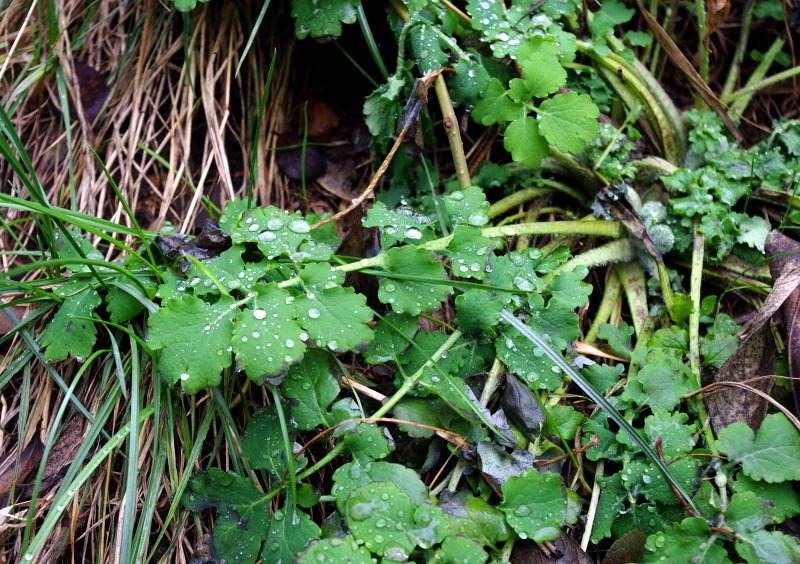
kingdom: Plantae
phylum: Tracheophyta
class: Magnoliopsida
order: Ranunculales
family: Papaveraceae
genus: Chelidonium
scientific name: Chelidonium majus
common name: Greater celandine
